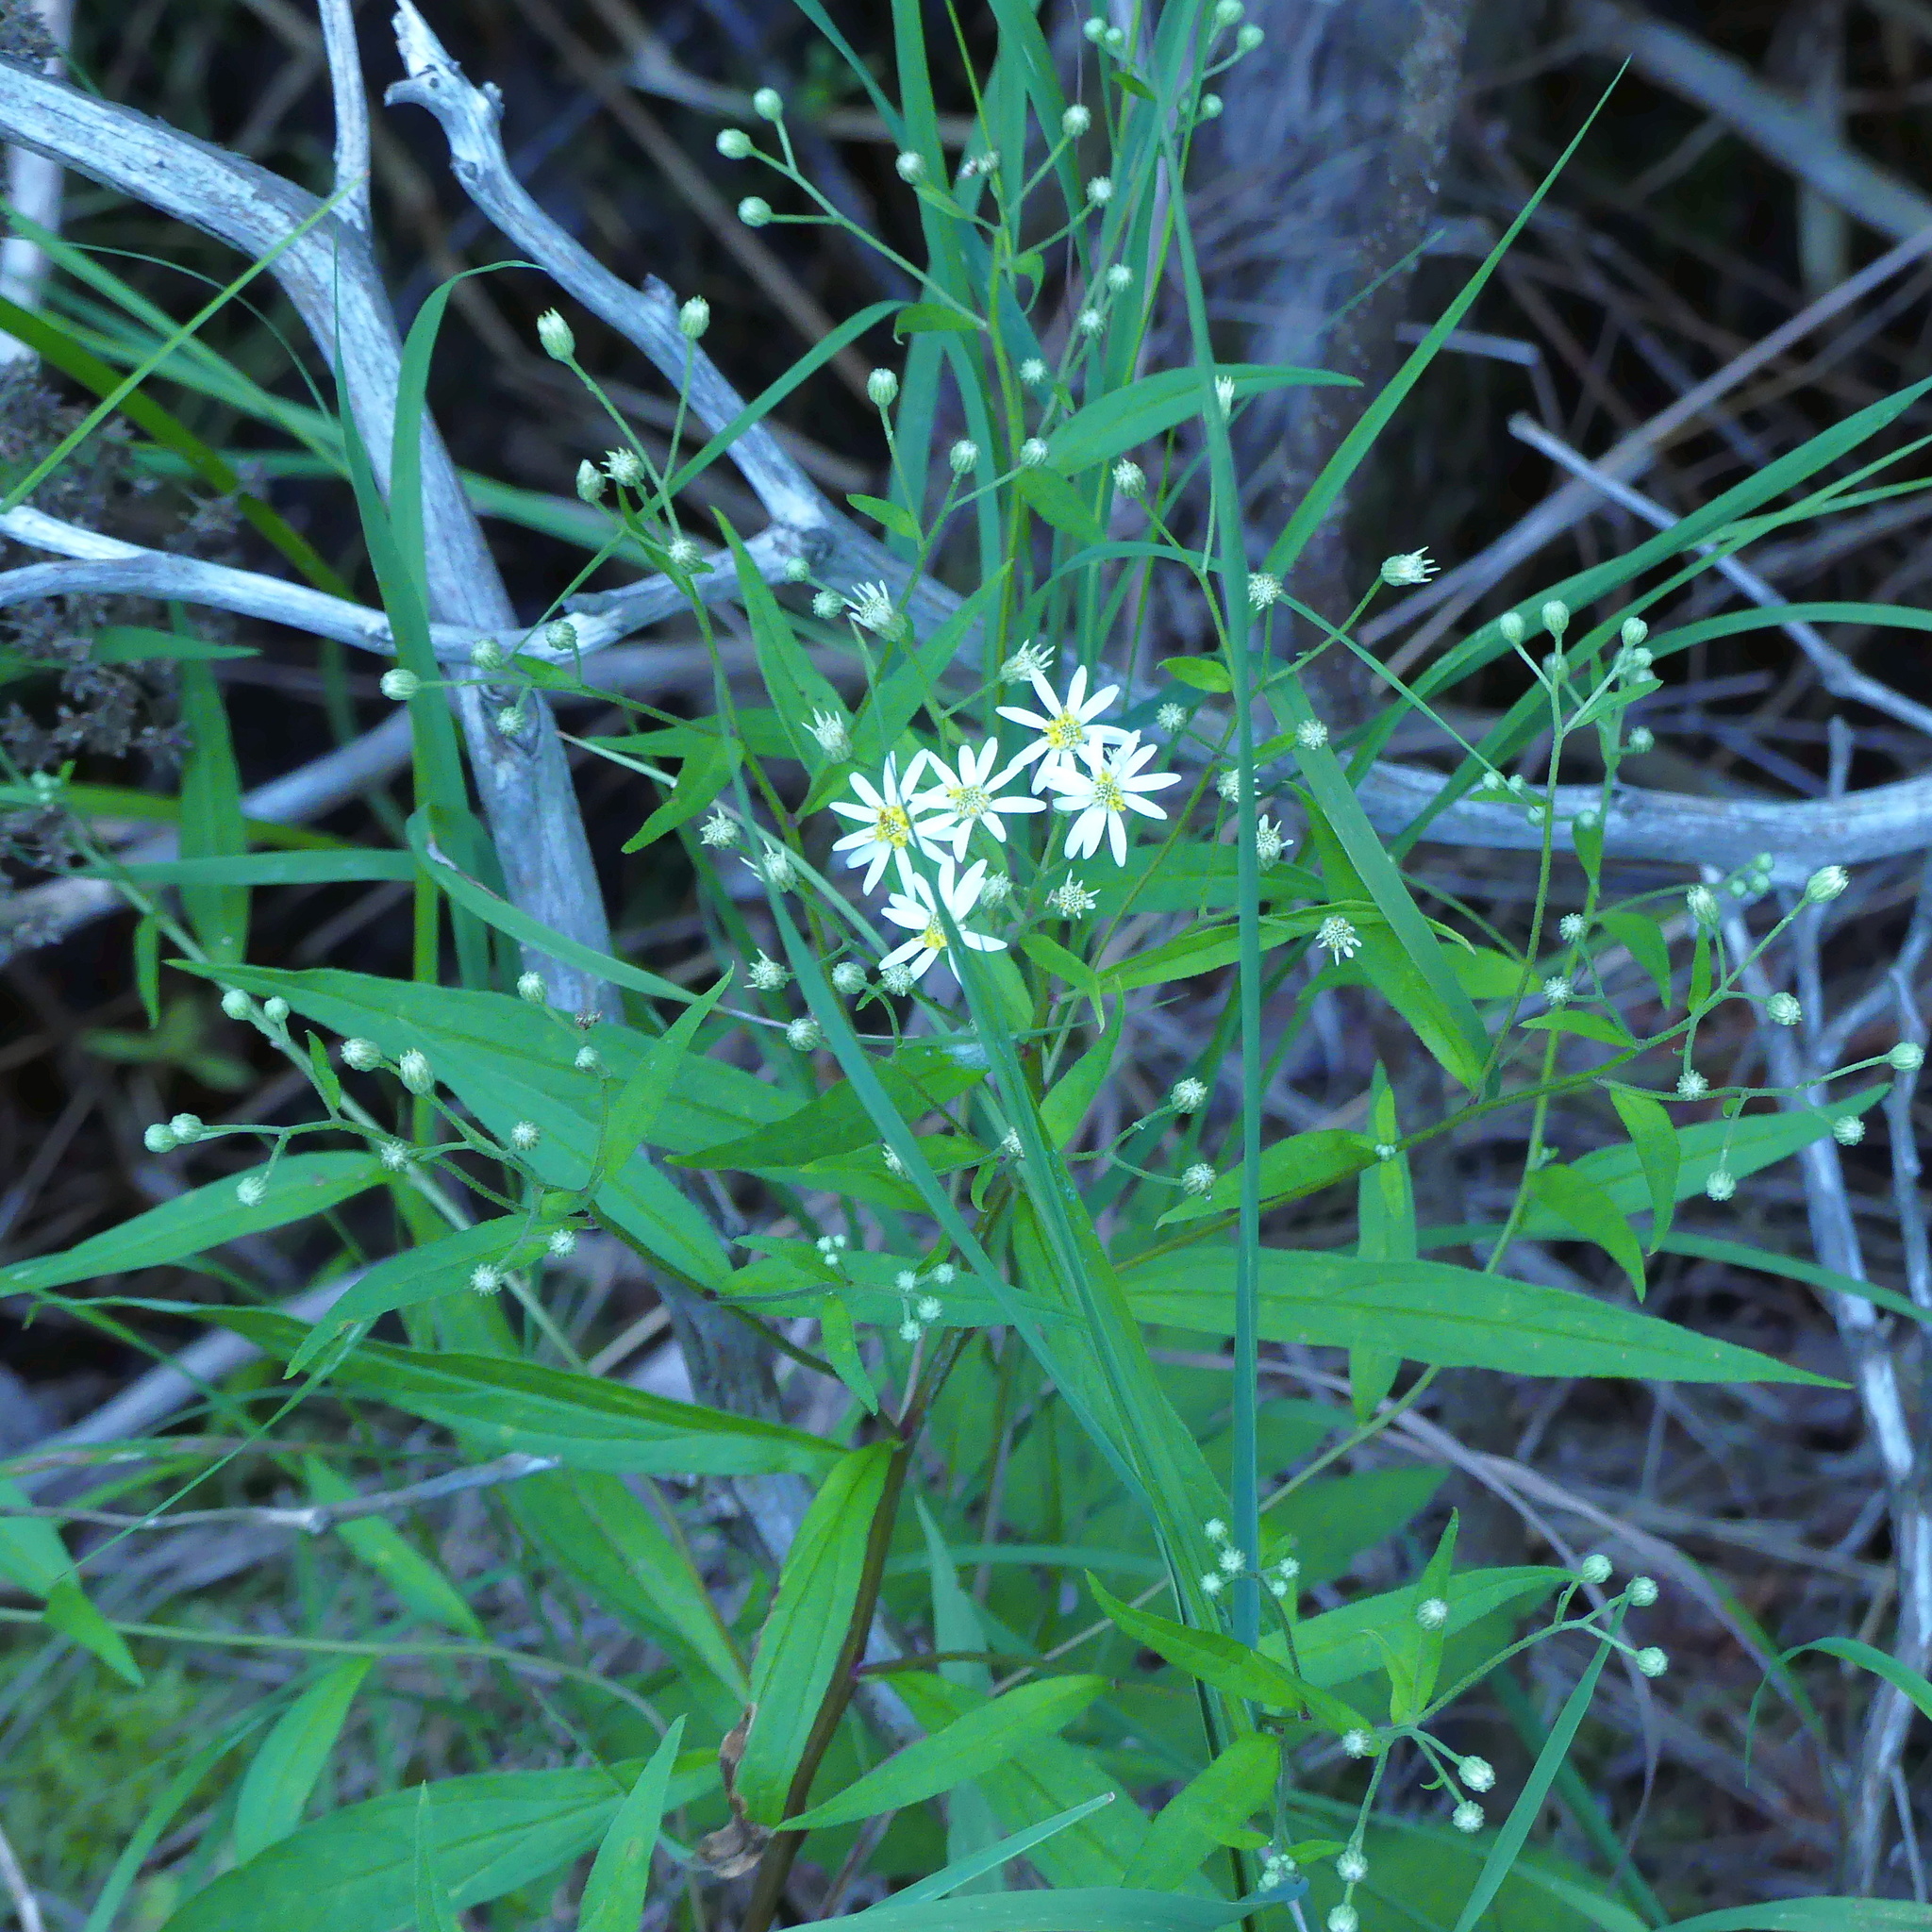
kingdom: Plantae
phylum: Tracheophyta
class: Magnoliopsida
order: Asterales
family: Asteraceae
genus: Doellingeria
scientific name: Doellingeria umbellata
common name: Flat-top white aster
